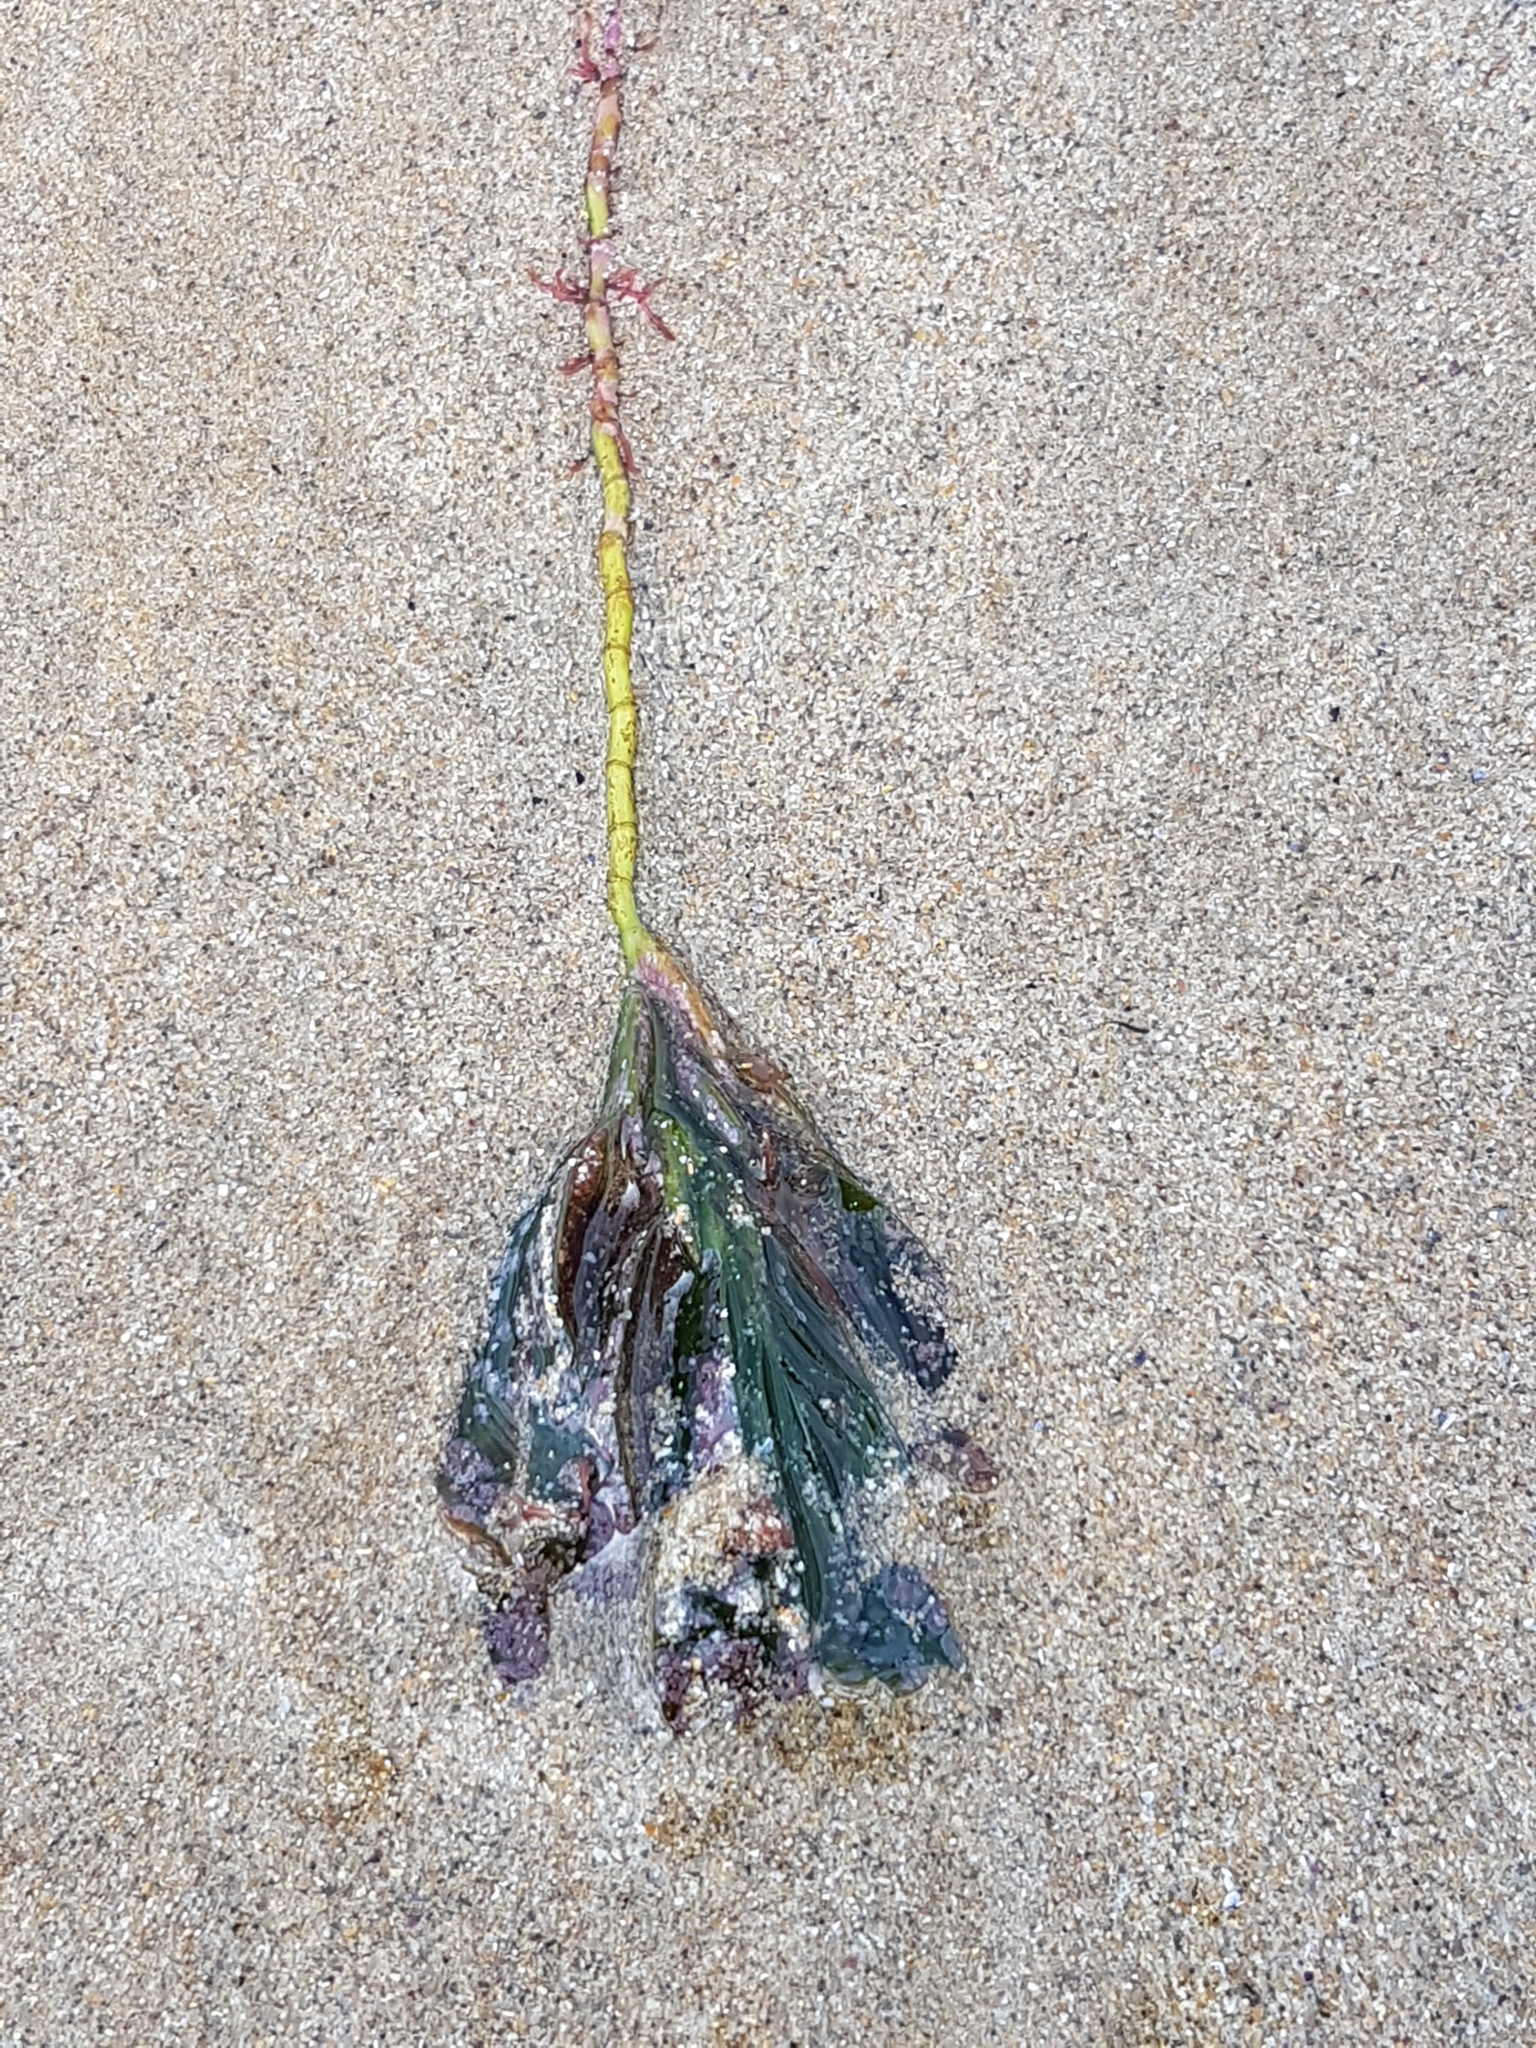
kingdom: Plantae
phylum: Tracheophyta
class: Liliopsida
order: Alismatales
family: Cymodoceaceae
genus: Amphibolis
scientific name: Amphibolis antarctica
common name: Species code: aa
